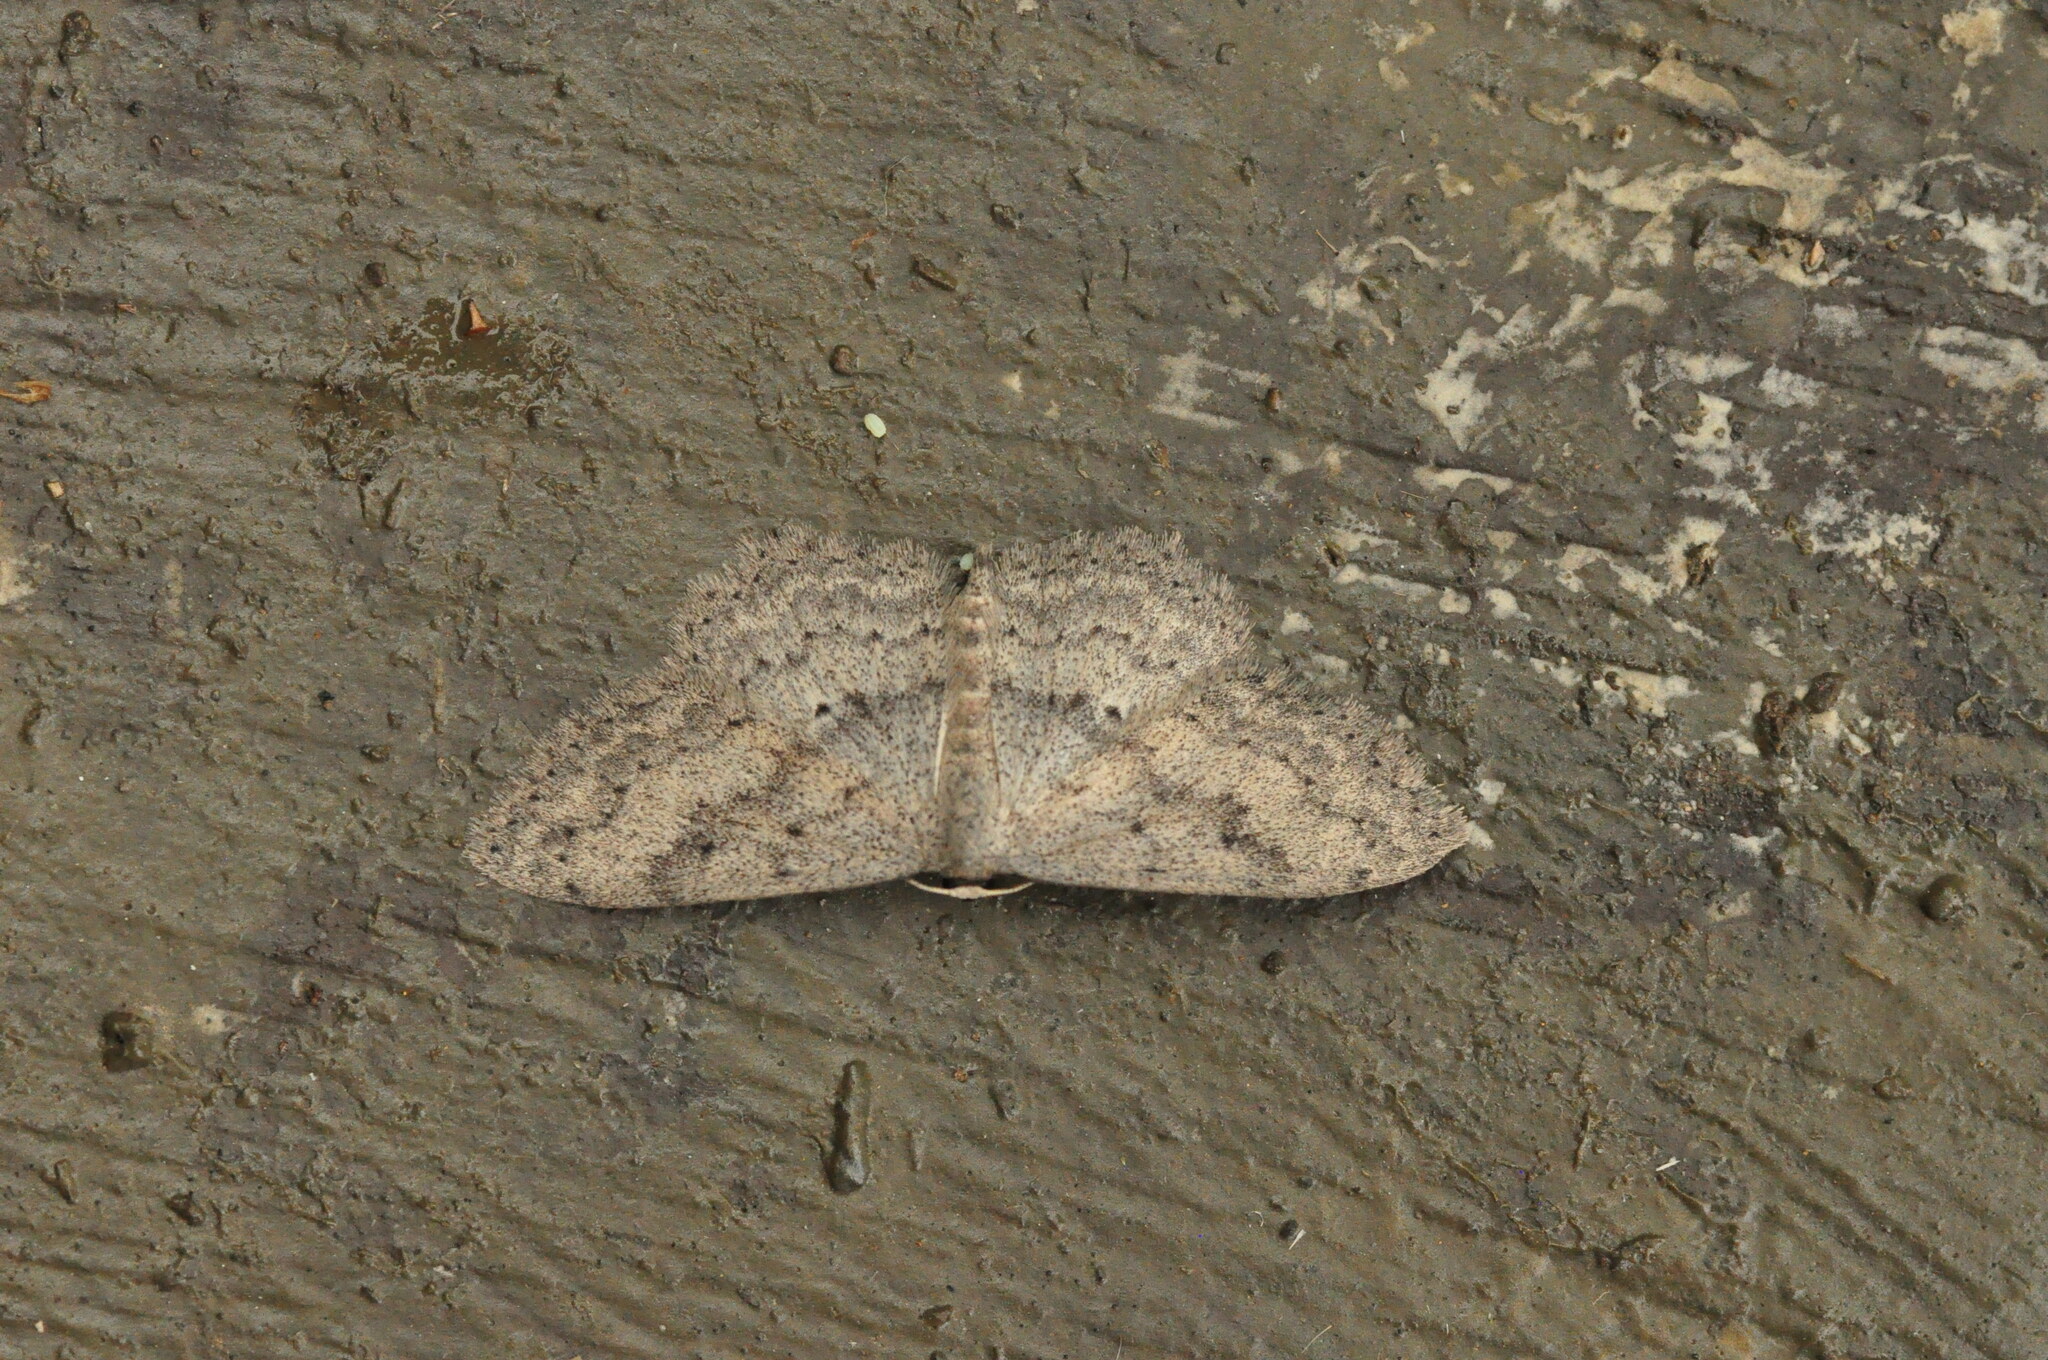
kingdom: Animalia
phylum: Arthropoda
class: Insecta
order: Lepidoptera
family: Geometridae
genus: Scopula
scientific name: Scopula guancharia
